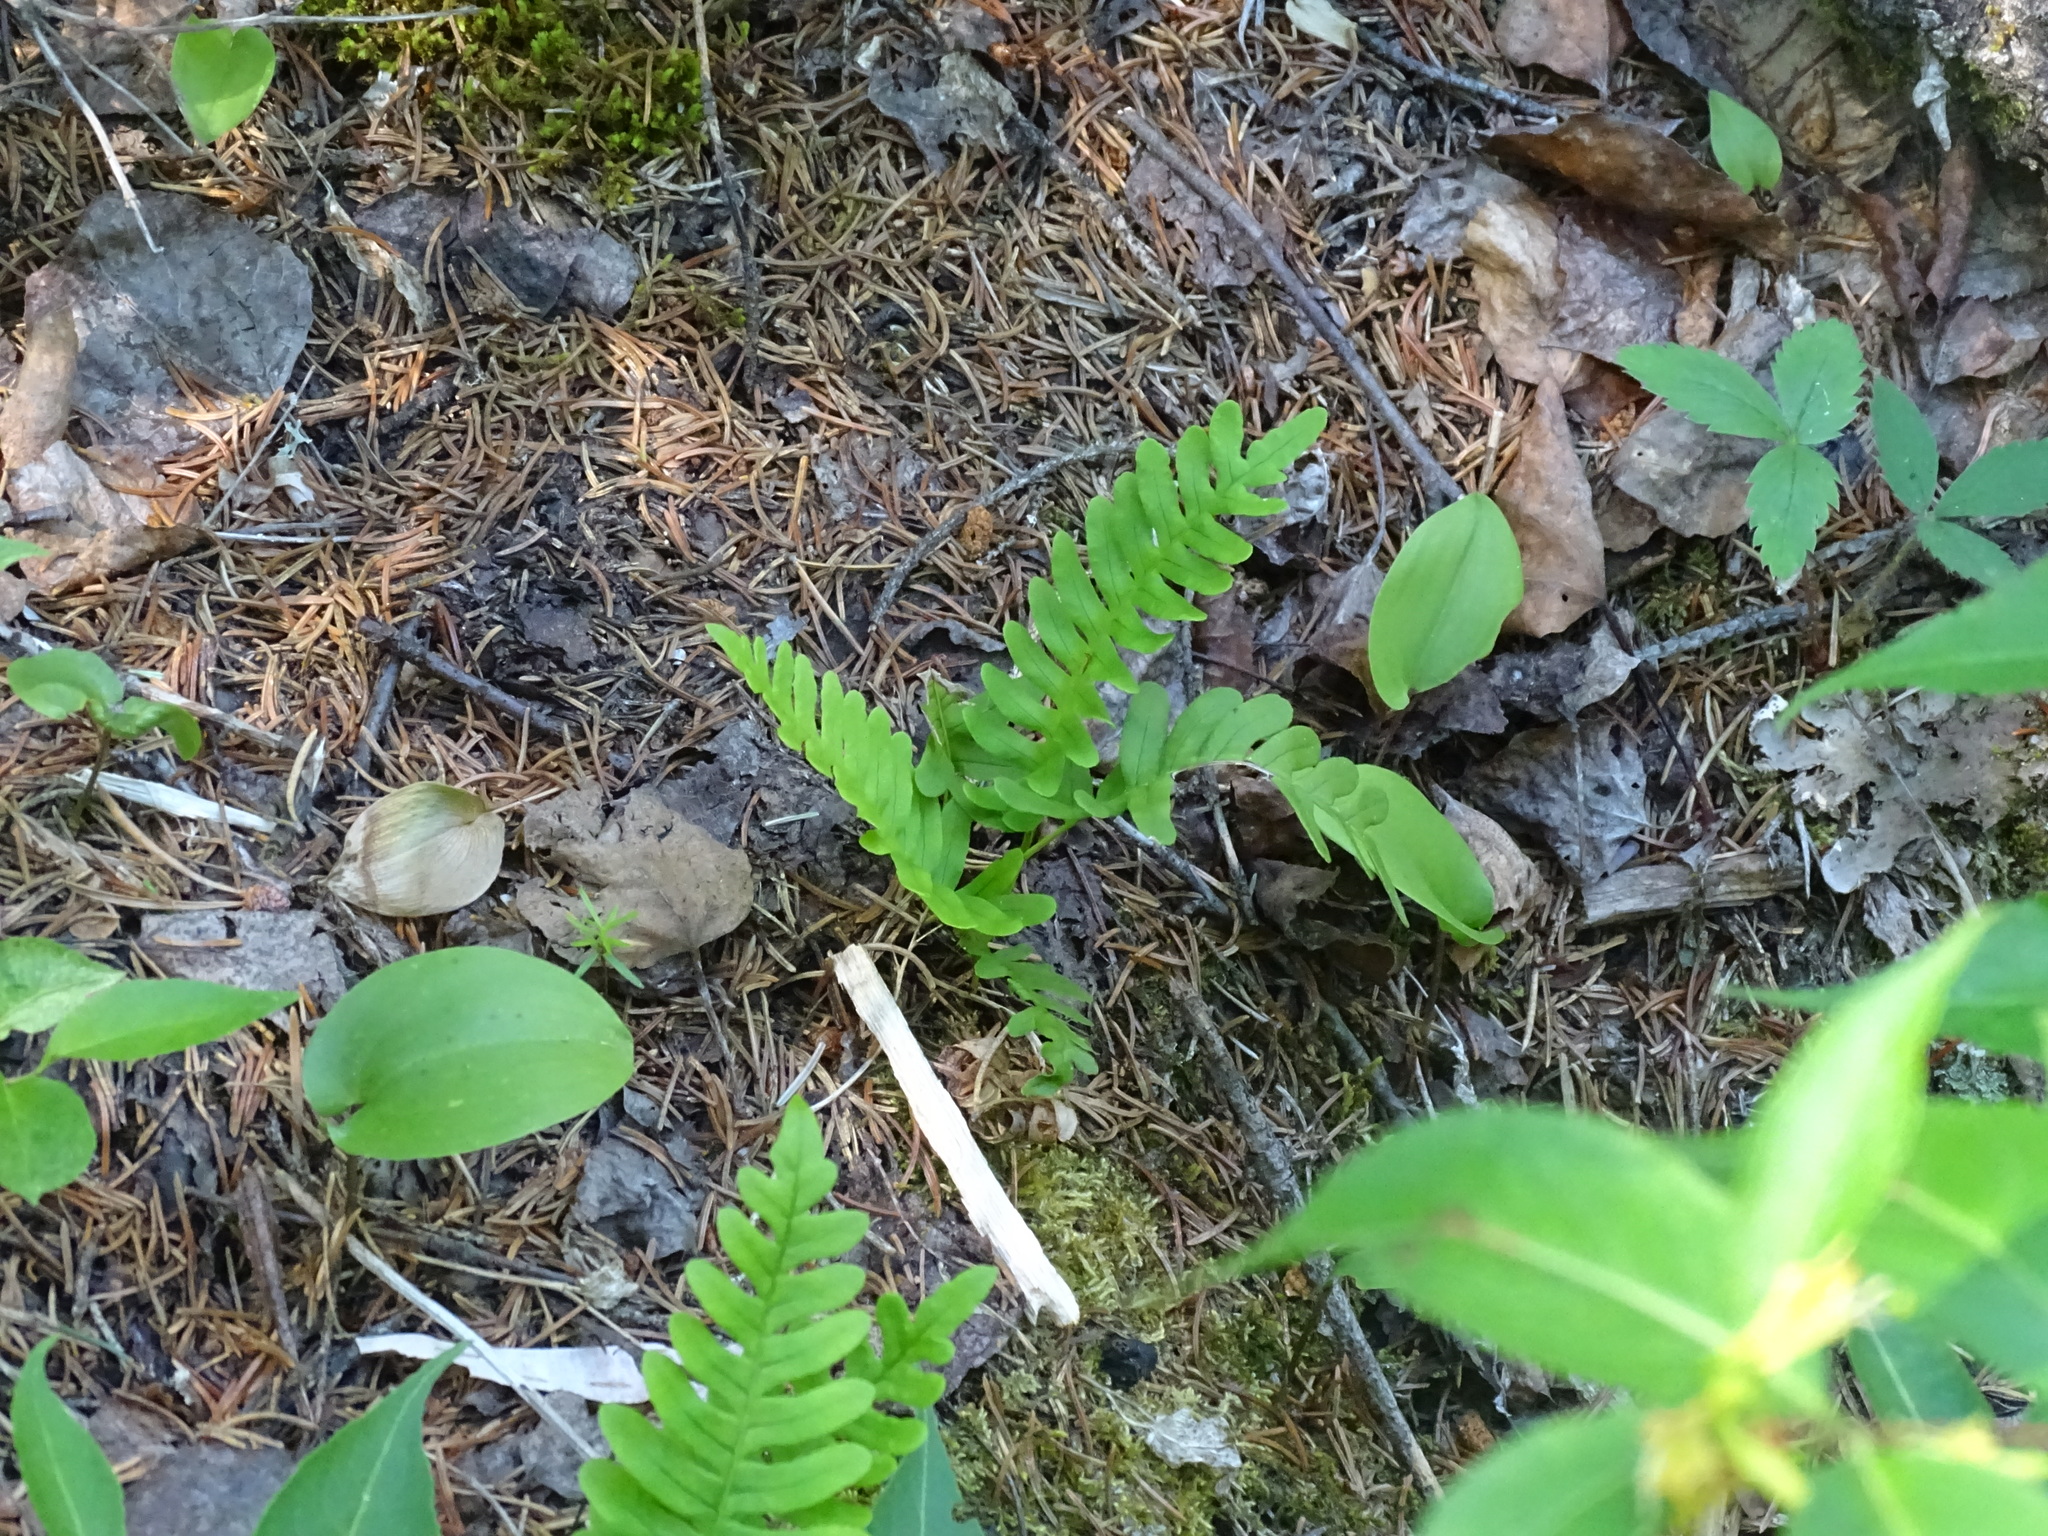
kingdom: Plantae
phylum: Tracheophyta
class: Polypodiopsida
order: Polypodiales
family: Polypodiaceae
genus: Polypodium
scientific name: Polypodium virginianum
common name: American wall fern
